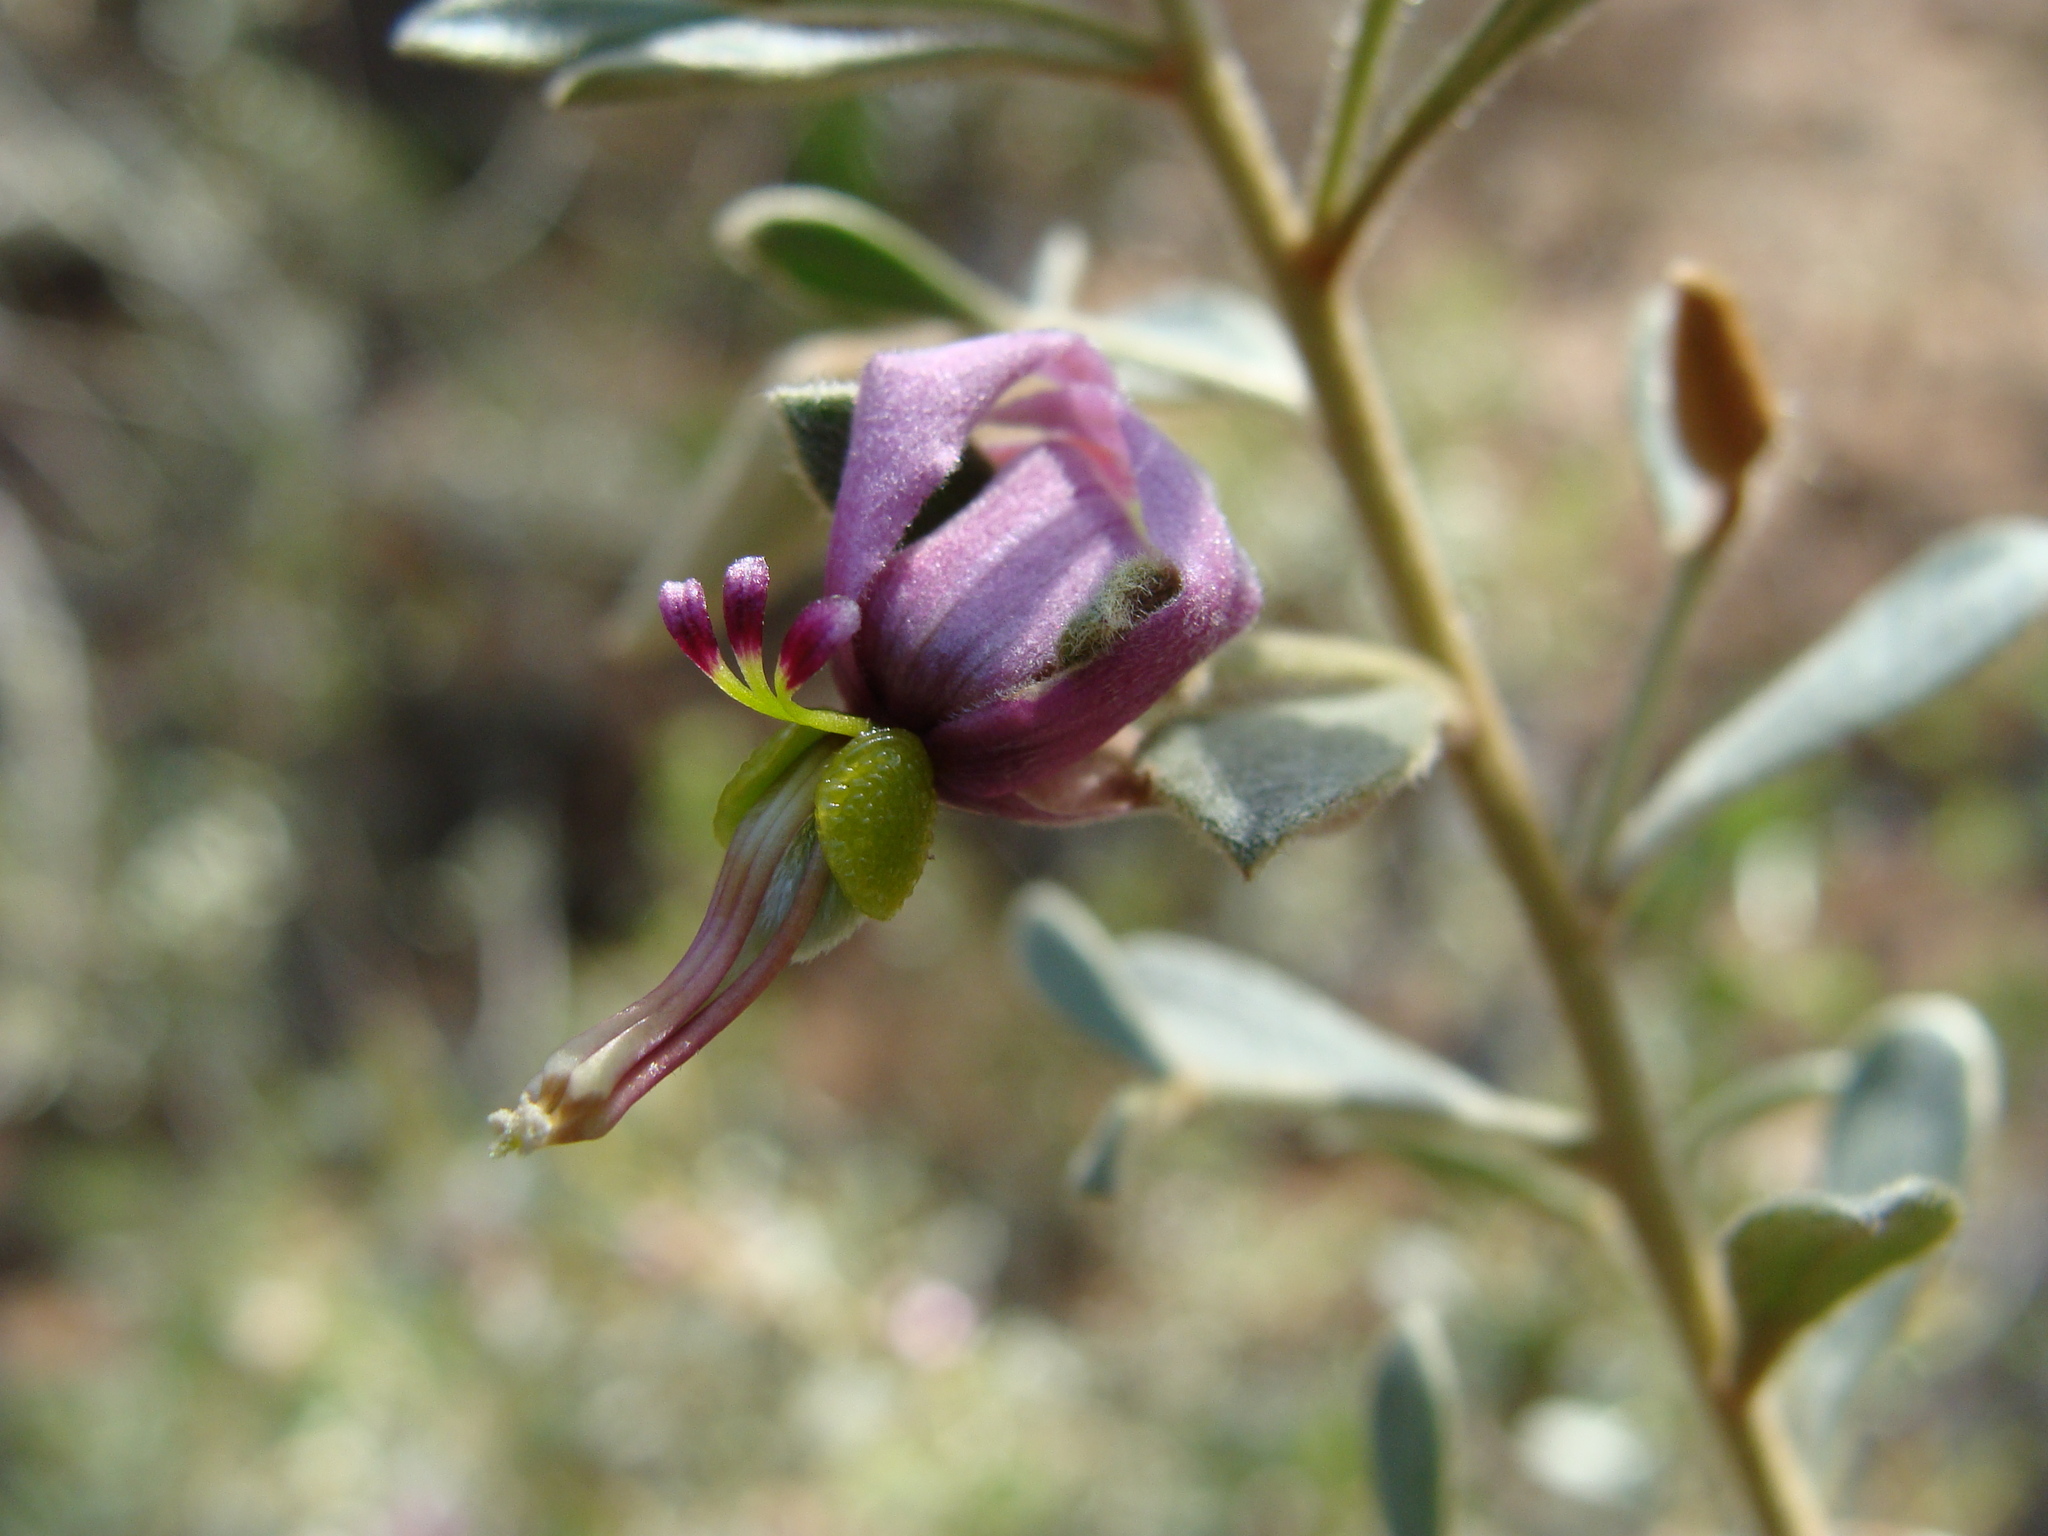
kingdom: Plantae
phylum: Tracheophyta
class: Magnoliopsida
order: Zygophyllales
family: Krameriaceae
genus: Krameria
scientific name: Krameria cytisoides
